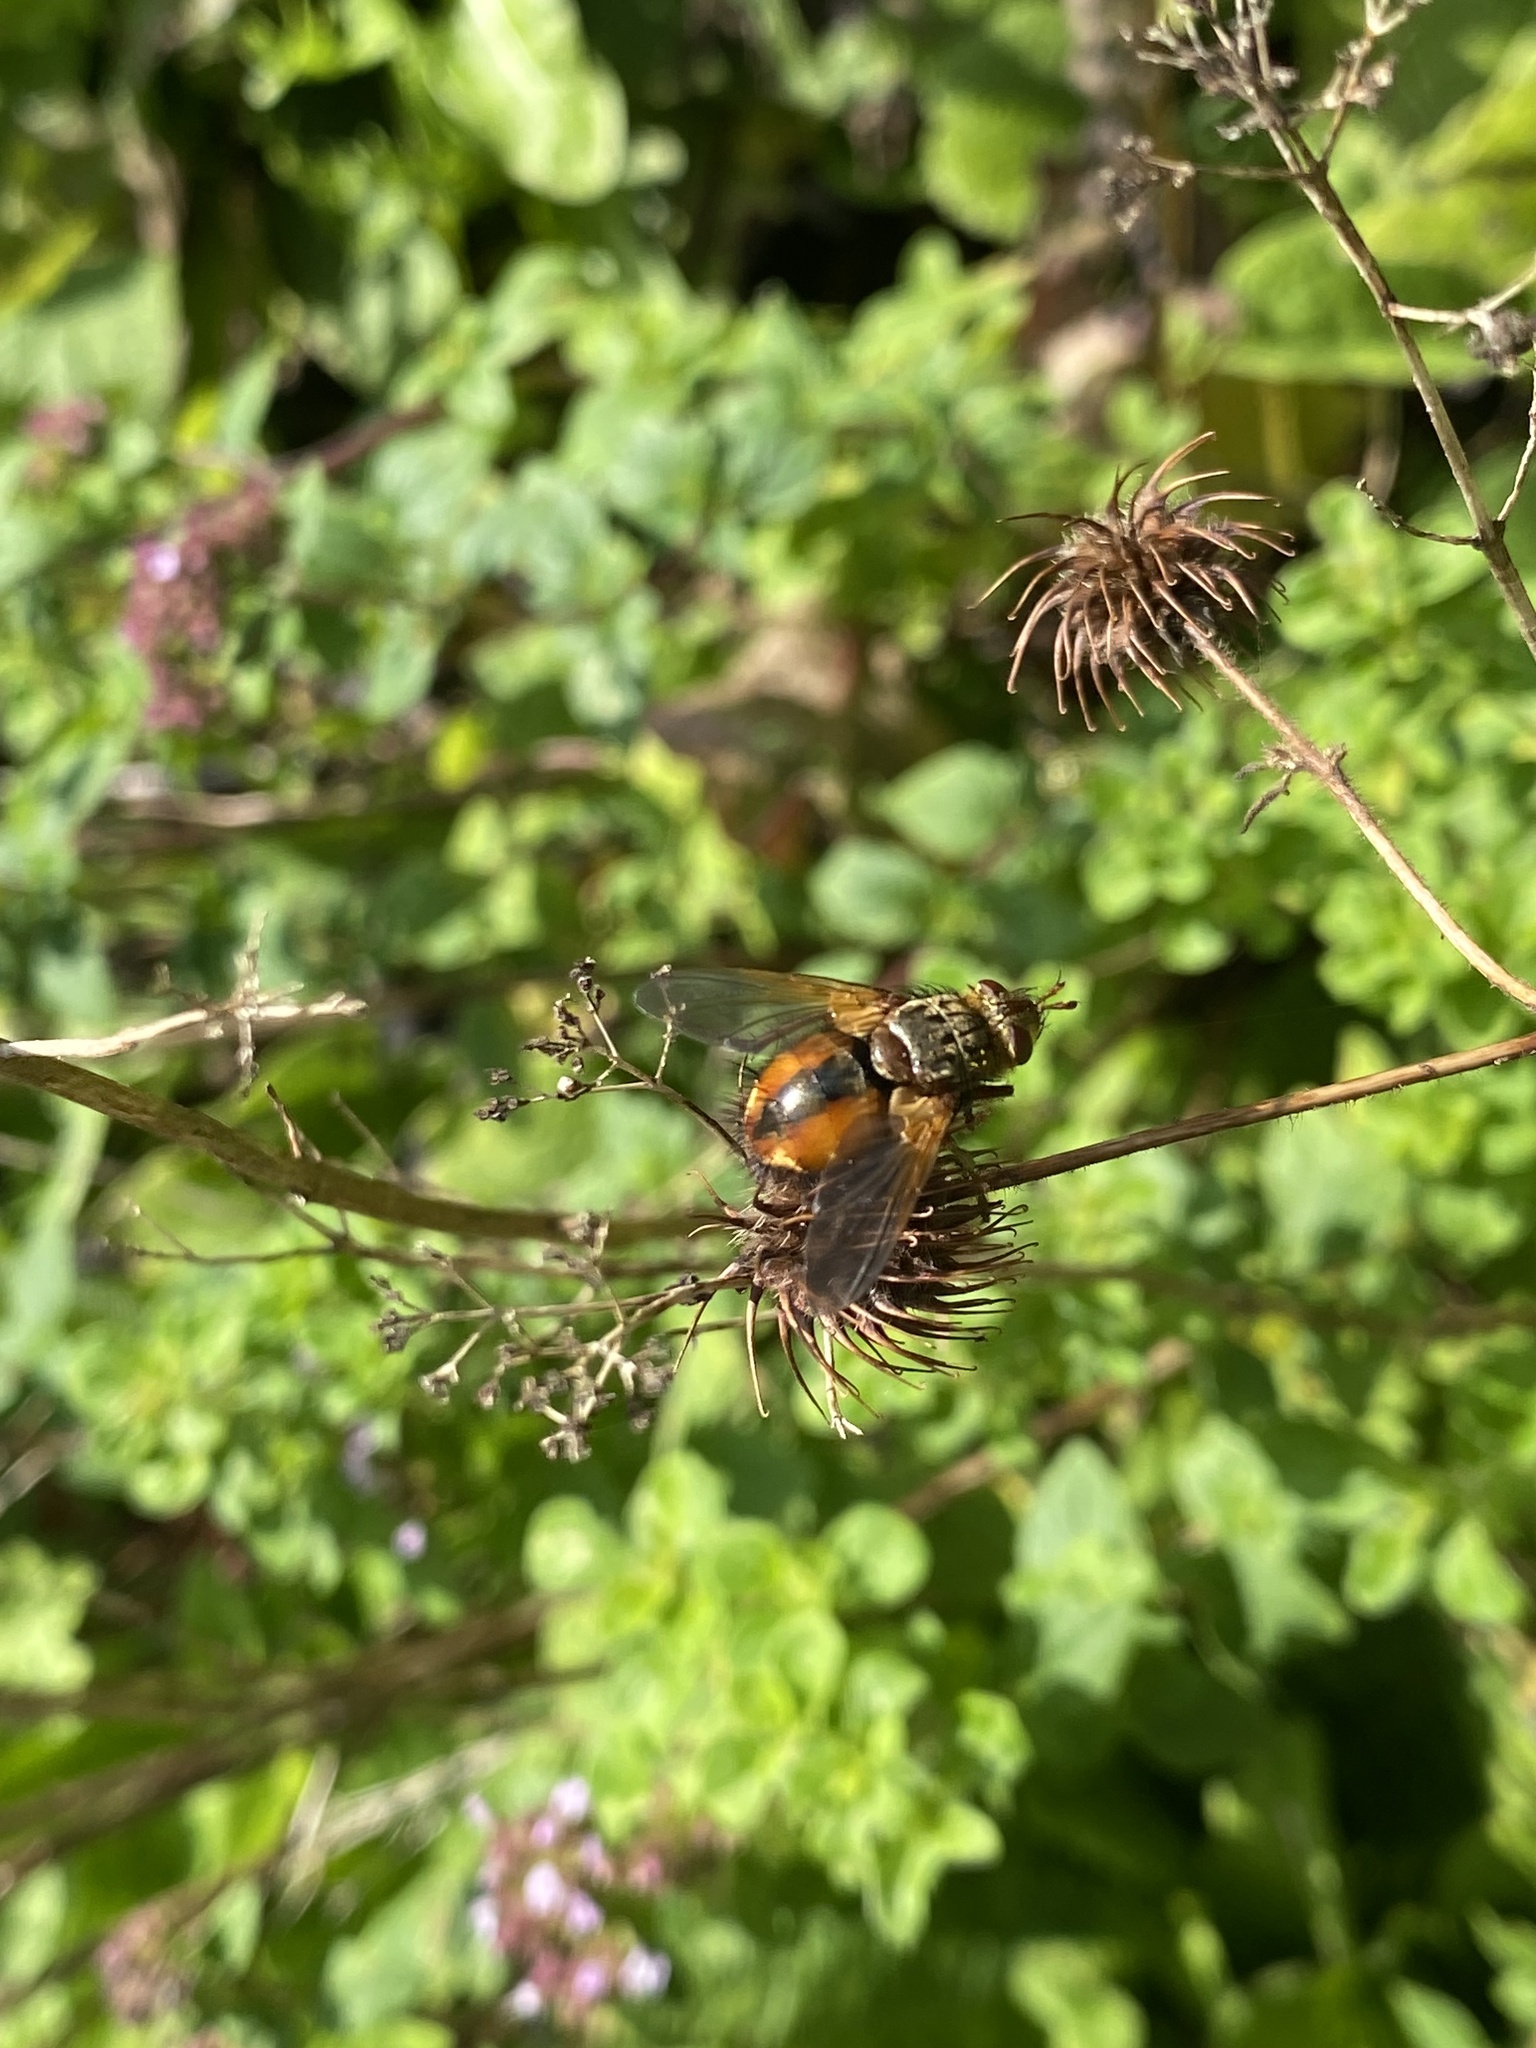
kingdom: Animalia
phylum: Arthropoda
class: Insecta
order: Diptera
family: Tachinidae
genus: Tachina
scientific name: Tachina fera
